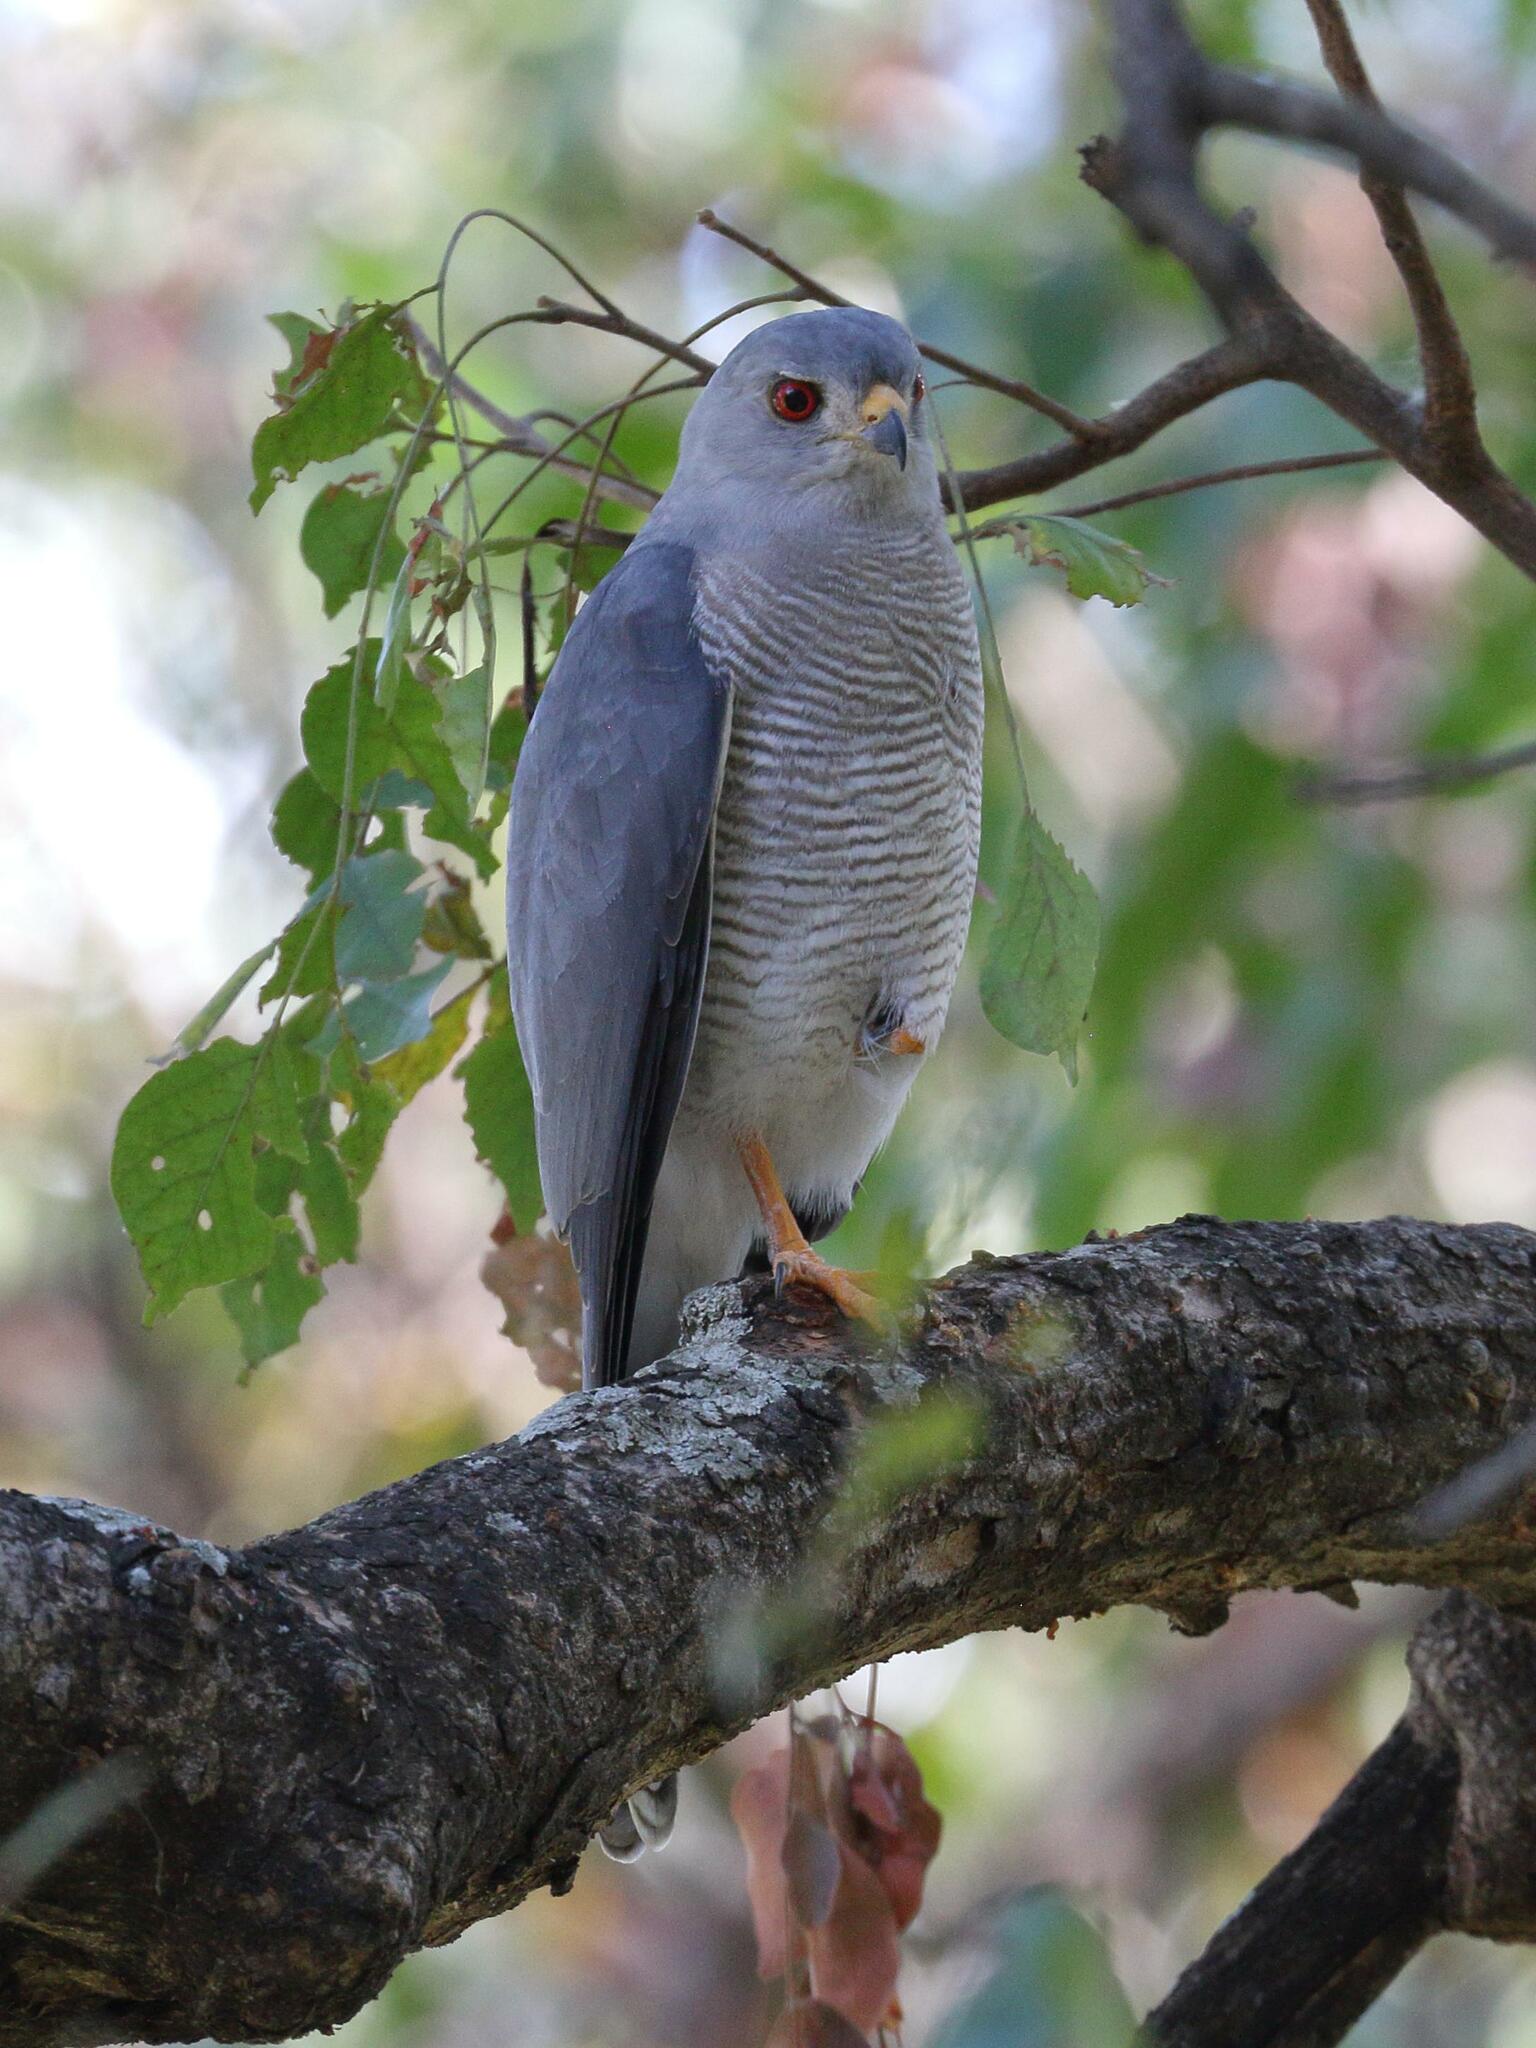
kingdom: Animalia
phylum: Chordata
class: Aves
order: Accipitriformes
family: Accipitridae
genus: Accipiter
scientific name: Accipiter badius
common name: Shikra
